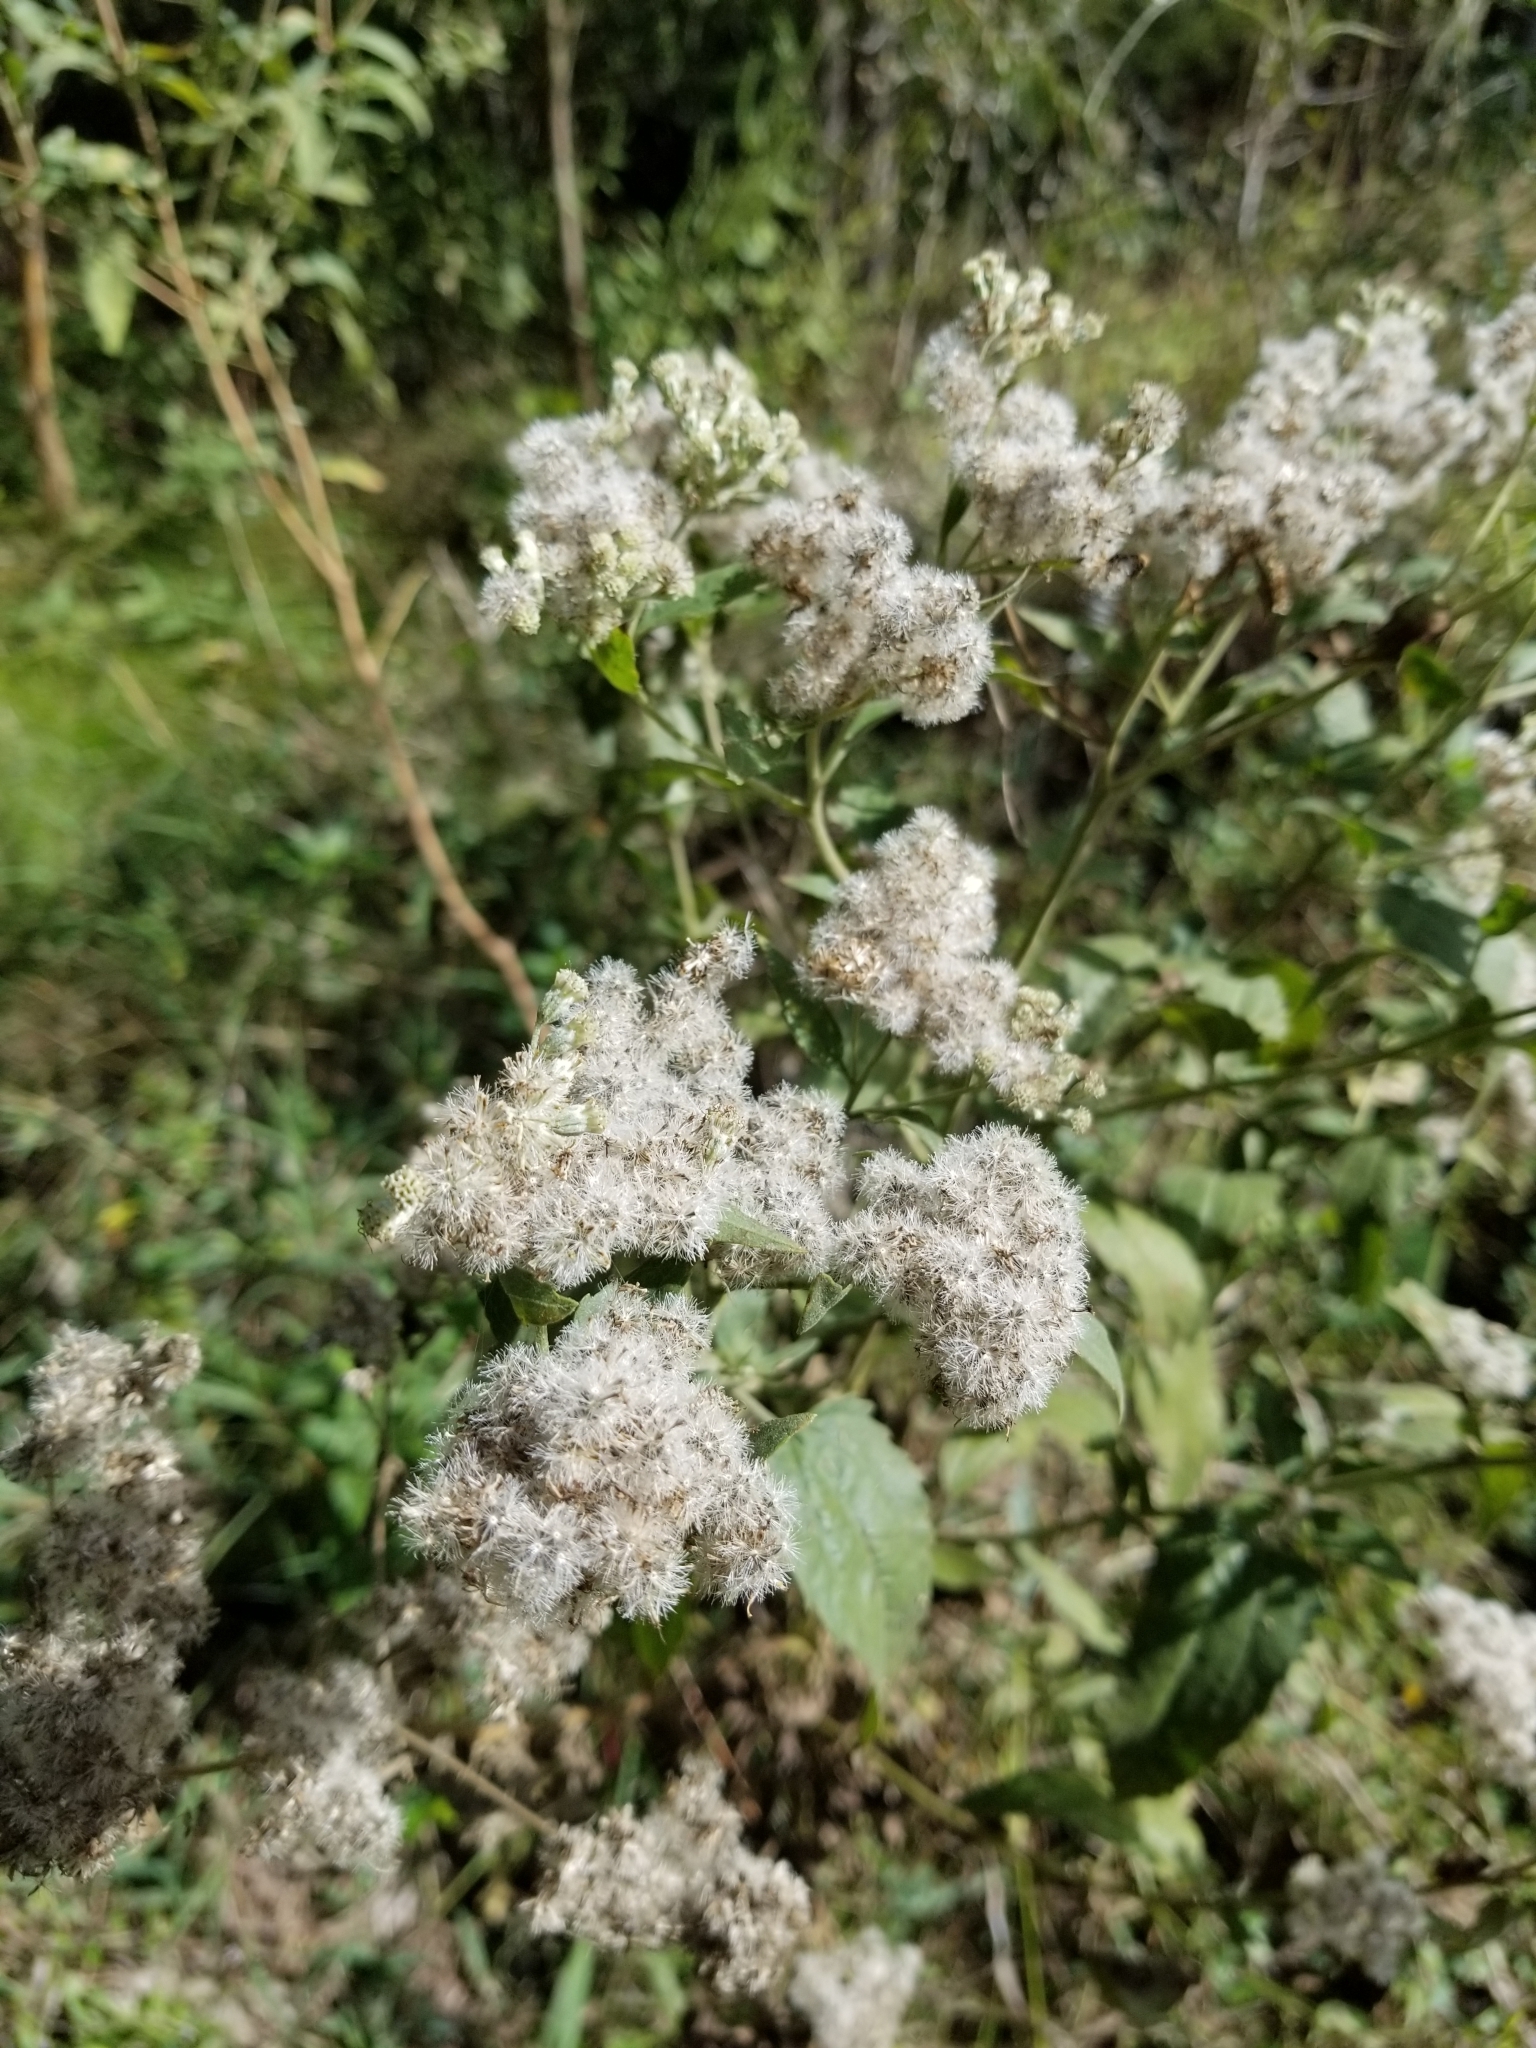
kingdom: Plantae
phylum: Tracheophyta
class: Magnoliopsida
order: Asterales
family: Asteraceae
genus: Eupatorium
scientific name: Eupatorium serotinum
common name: Late boneset
